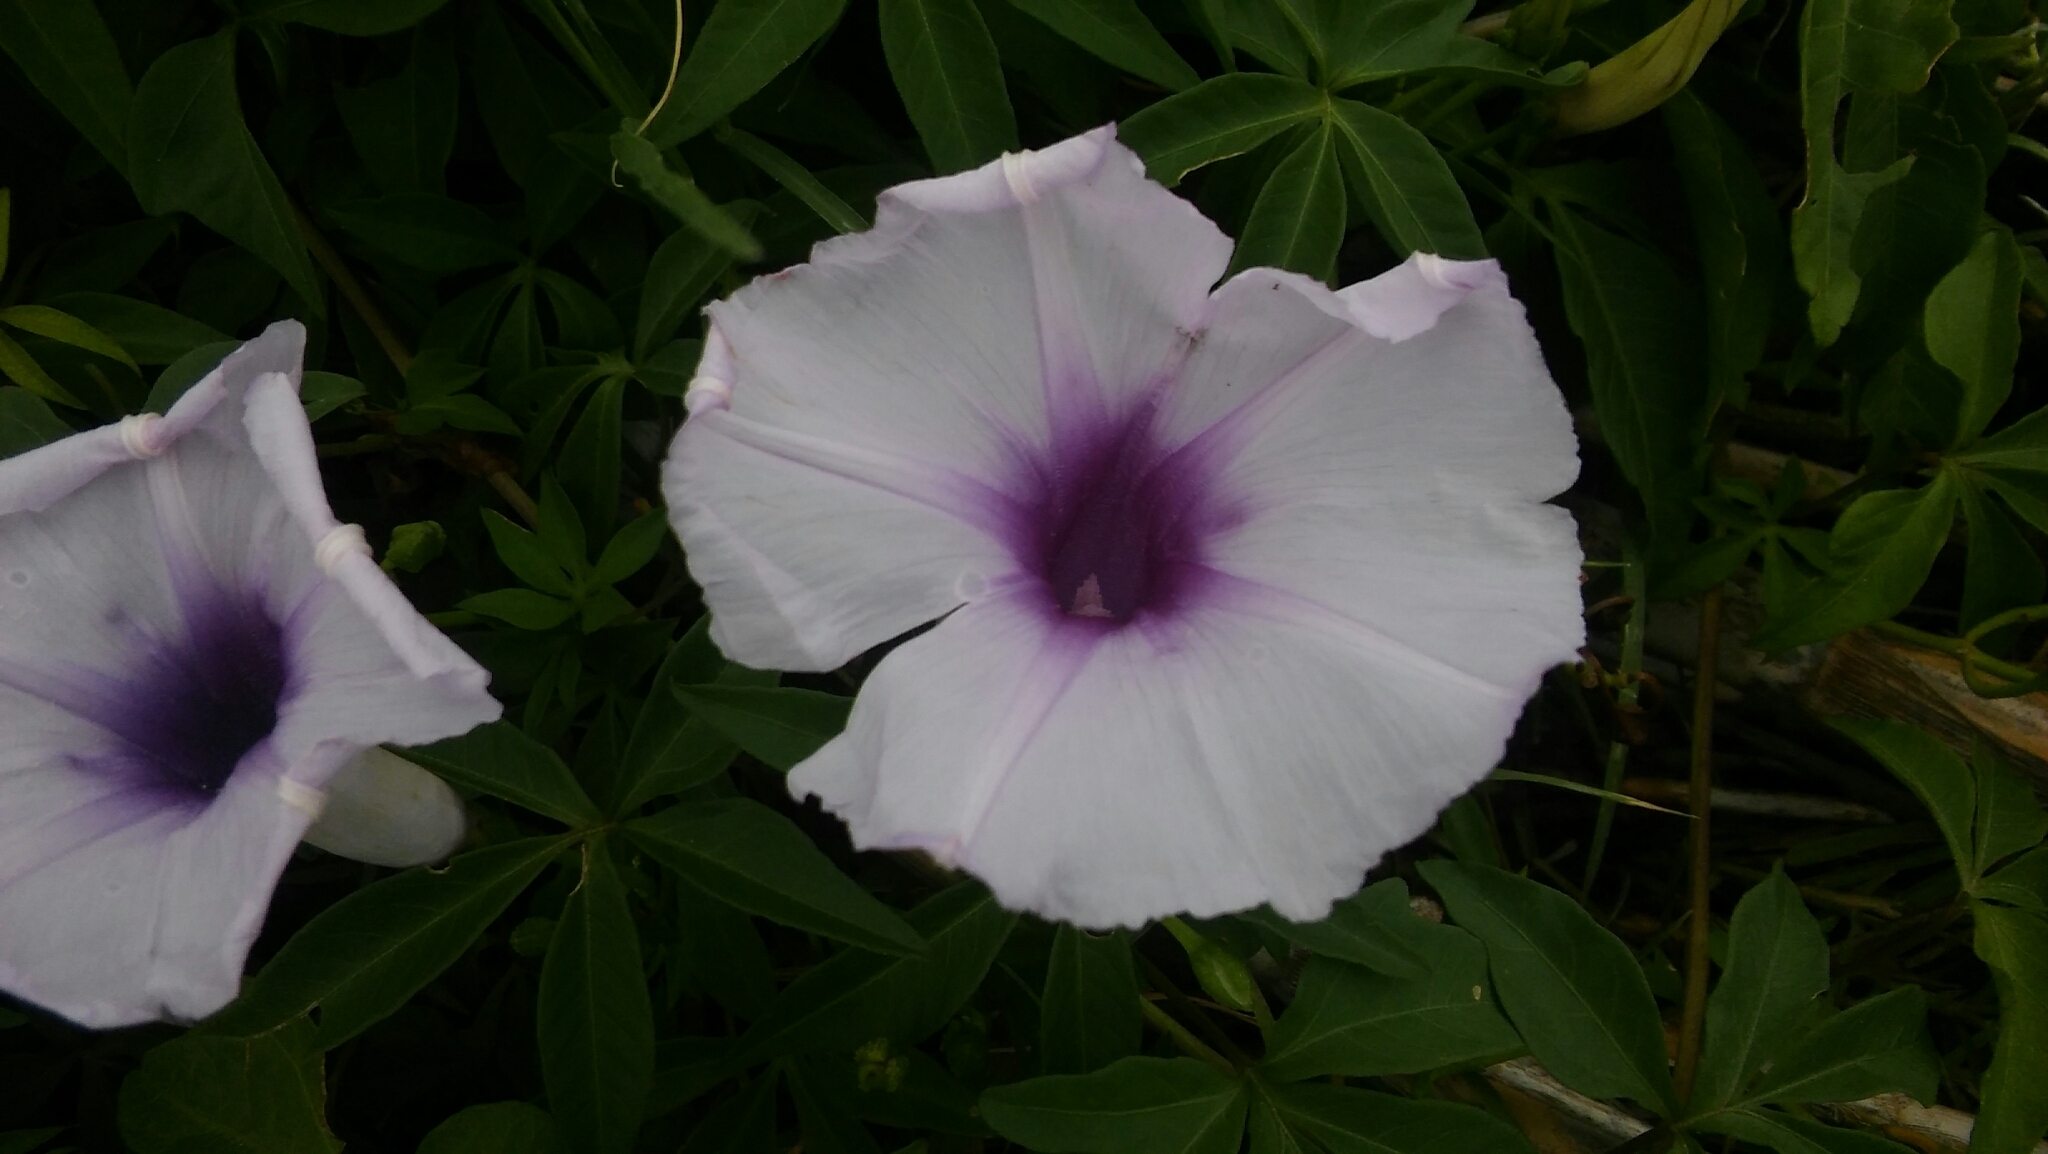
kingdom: Plantae
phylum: Tracheophyta
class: Magnoliopsida
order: Solanales
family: Convolvulaceae
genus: Ipomoea
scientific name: Ipomoea cairica
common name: Mile a minute vine
